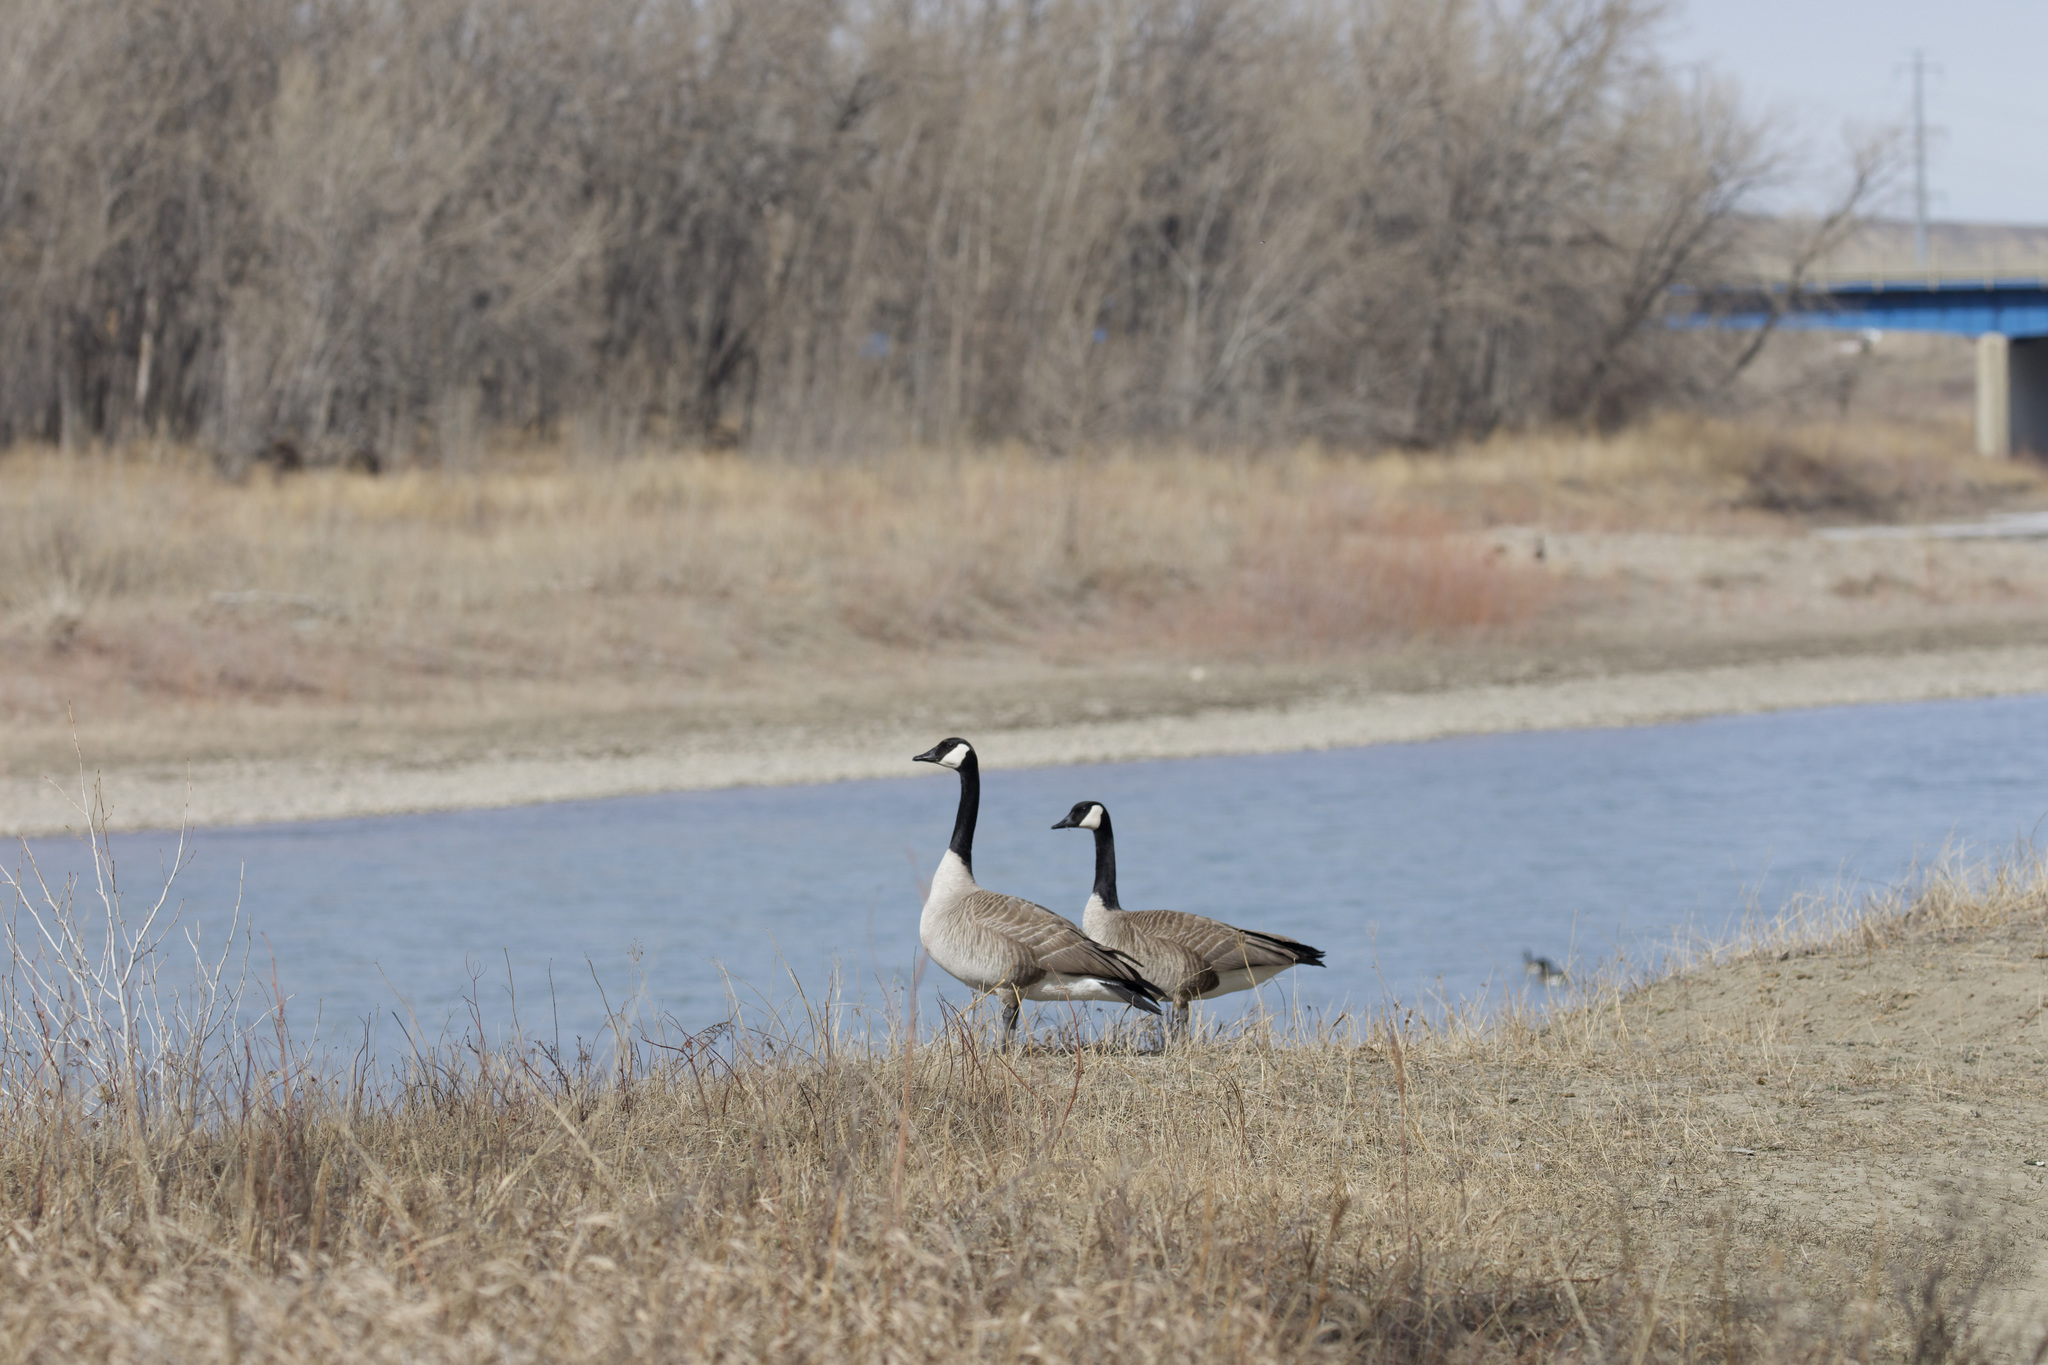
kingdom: Animalia
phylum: Chordata
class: Aves
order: Anseriformes
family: Anatidae
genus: Branta
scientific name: Branta canadensis
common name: Canada goose
